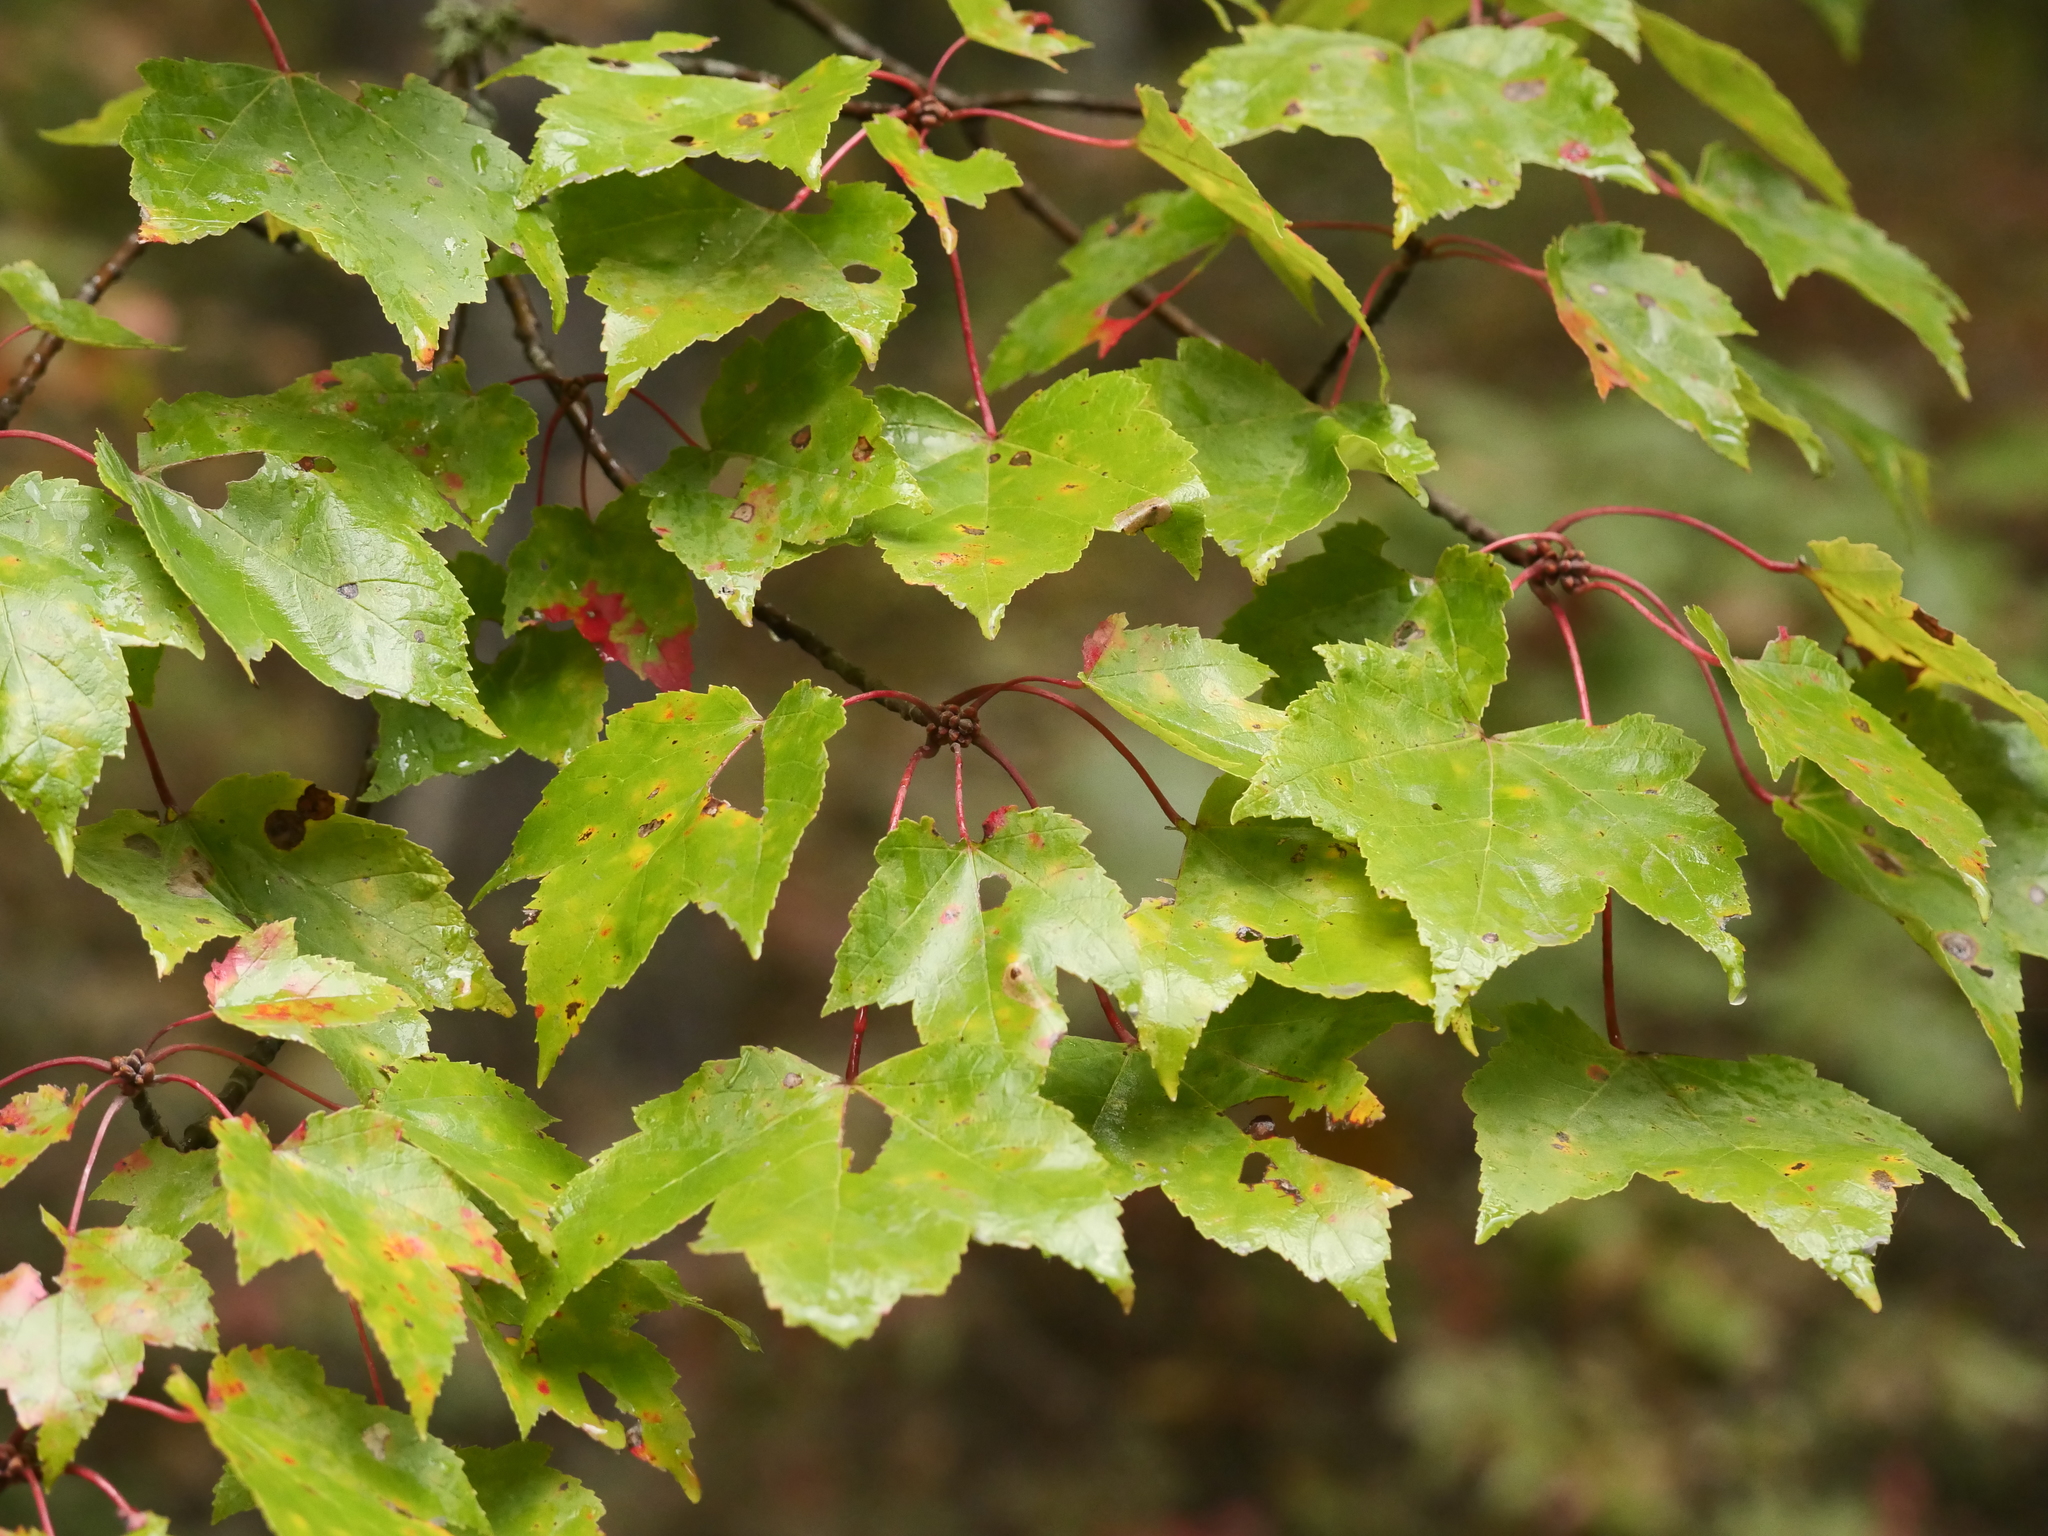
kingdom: Plantae
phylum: Tracheophyta
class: Magnoliopsida
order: Sapindales
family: Sapindaceae
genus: Acer
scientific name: Acer rubrum
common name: Red maple
